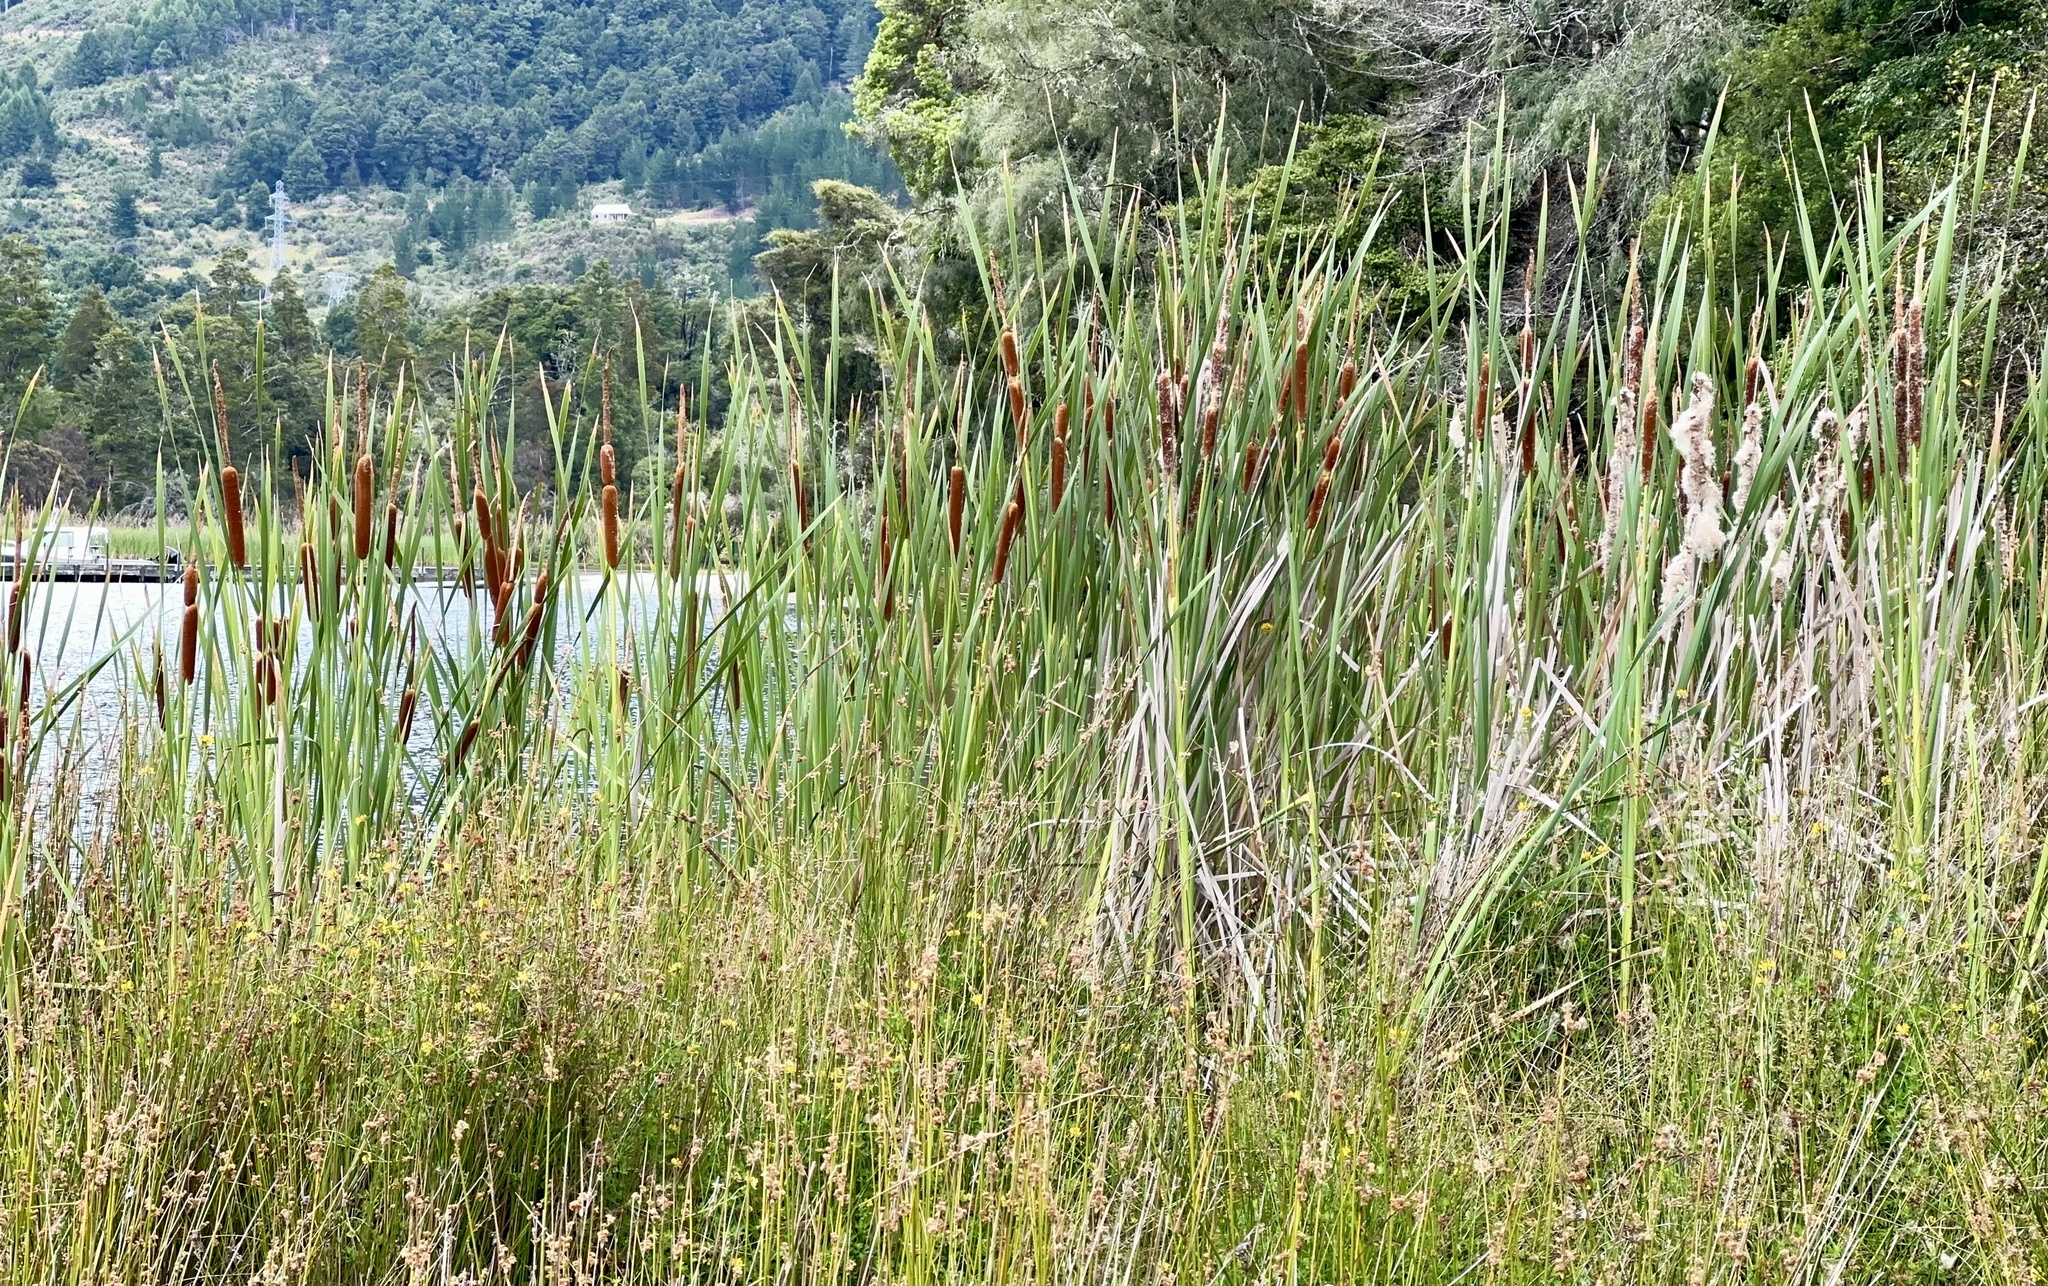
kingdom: Plantae
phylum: Tracheophyta
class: Liliopsida
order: Poales
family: Typhaceae
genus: Typha
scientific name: Typha orientalis
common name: Bullrush
